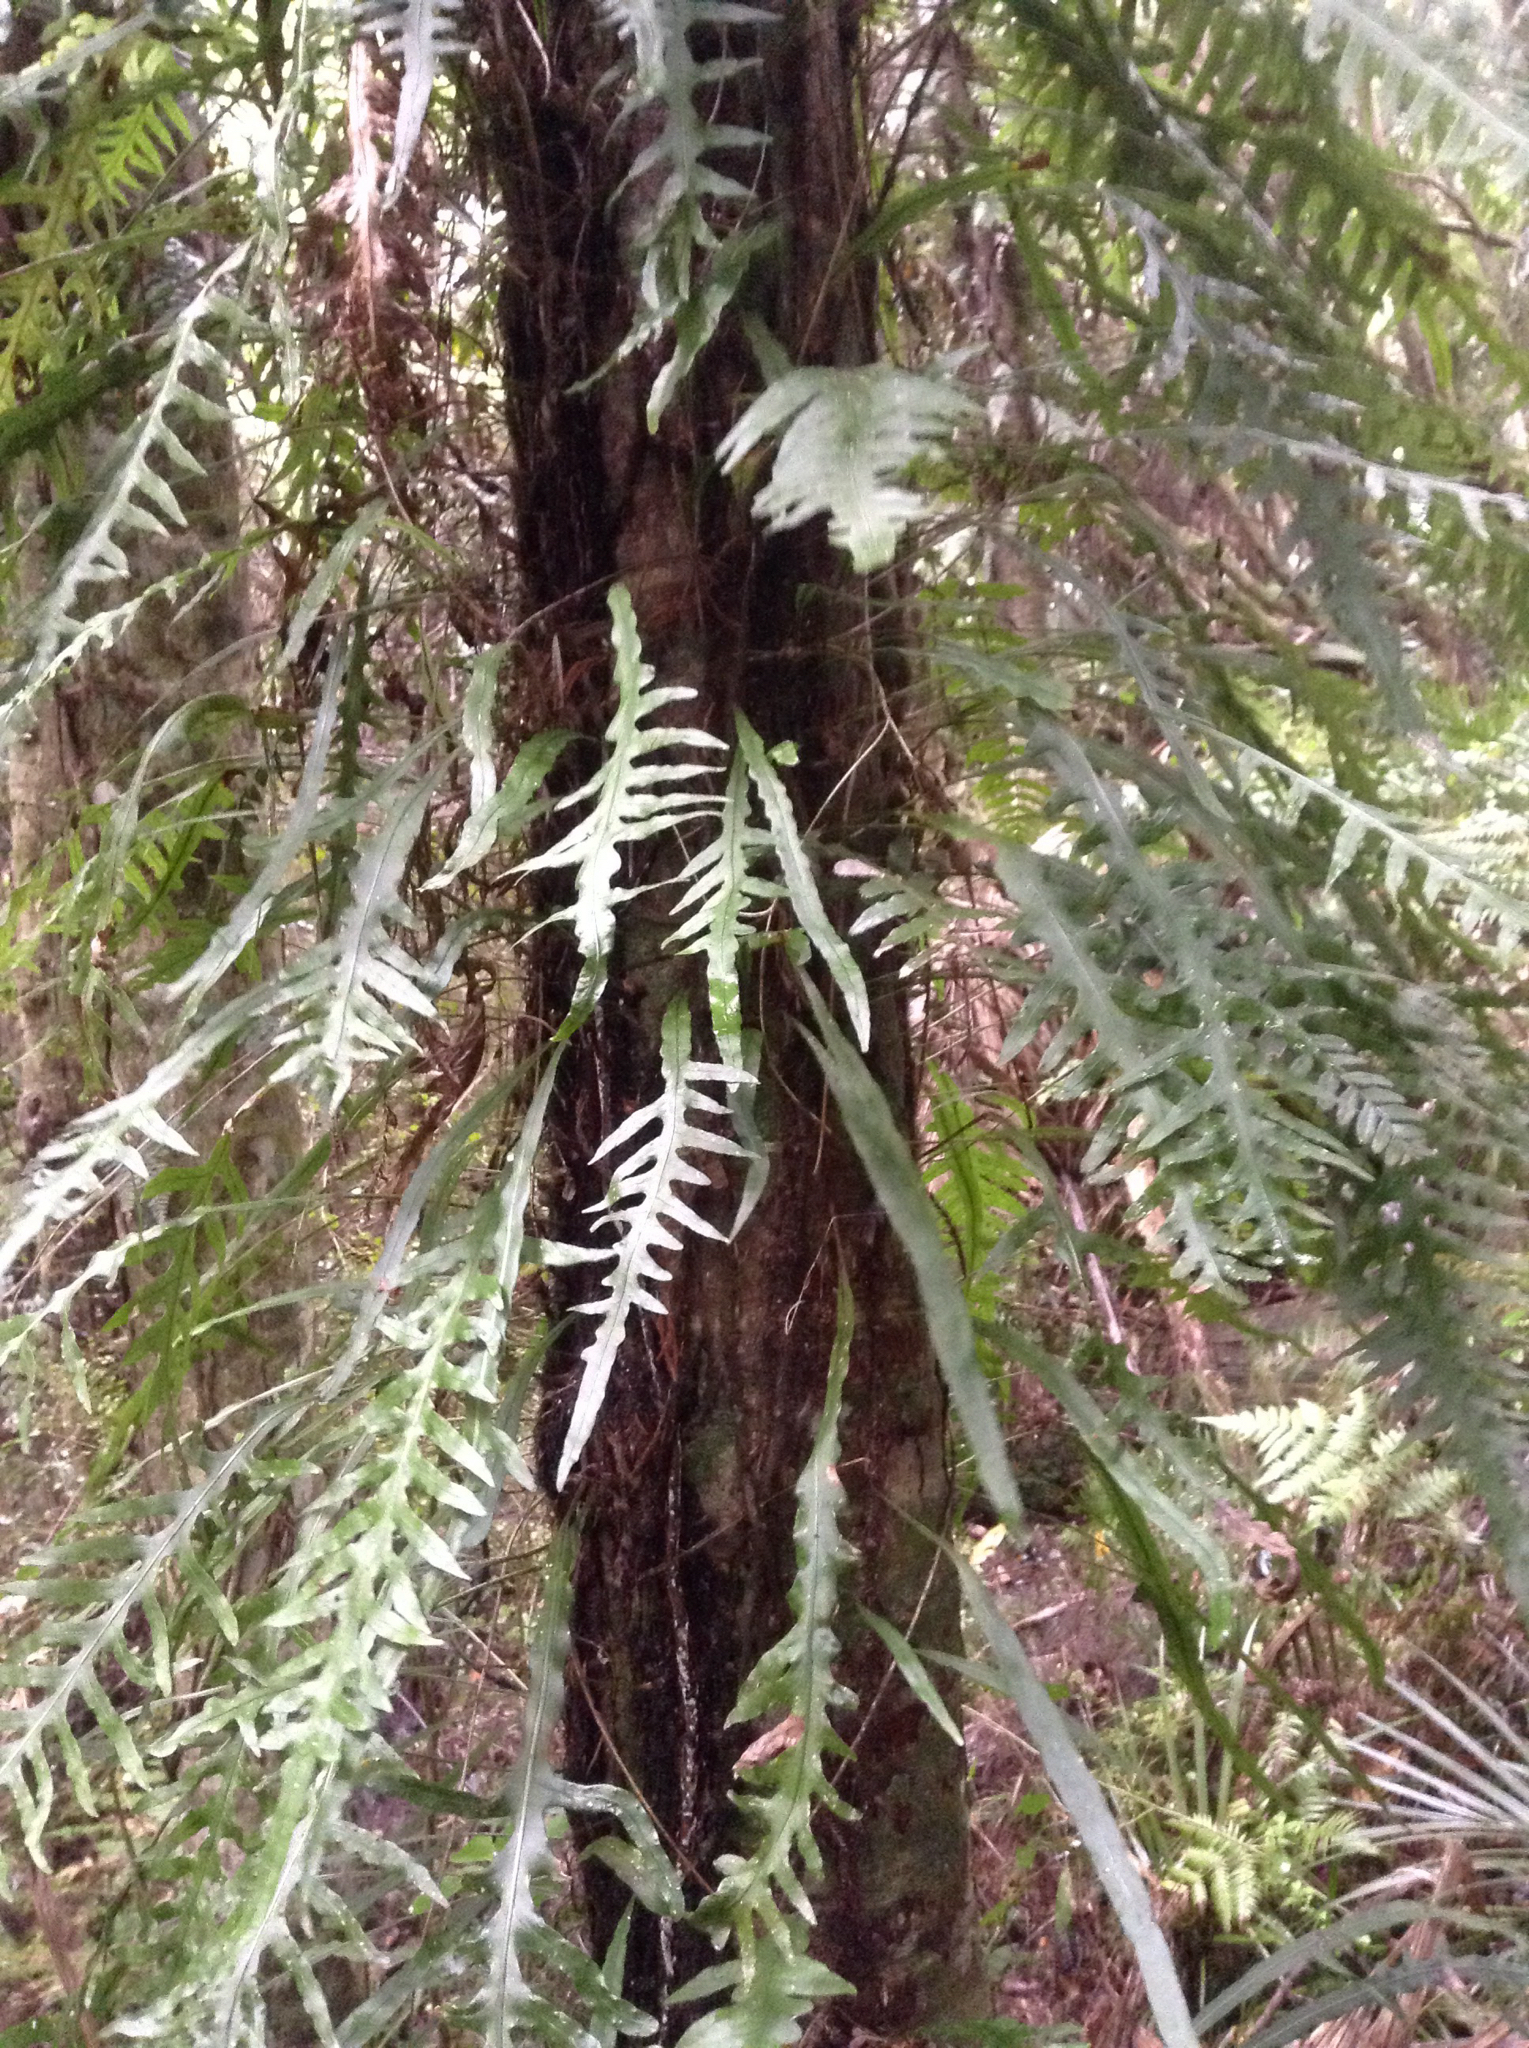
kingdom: Plantae
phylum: Tracheophyta
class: Polypodiopsida
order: Polypodiales
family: Polypodiaceae
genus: Lecanopteris
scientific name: Lecanopteris scandens
